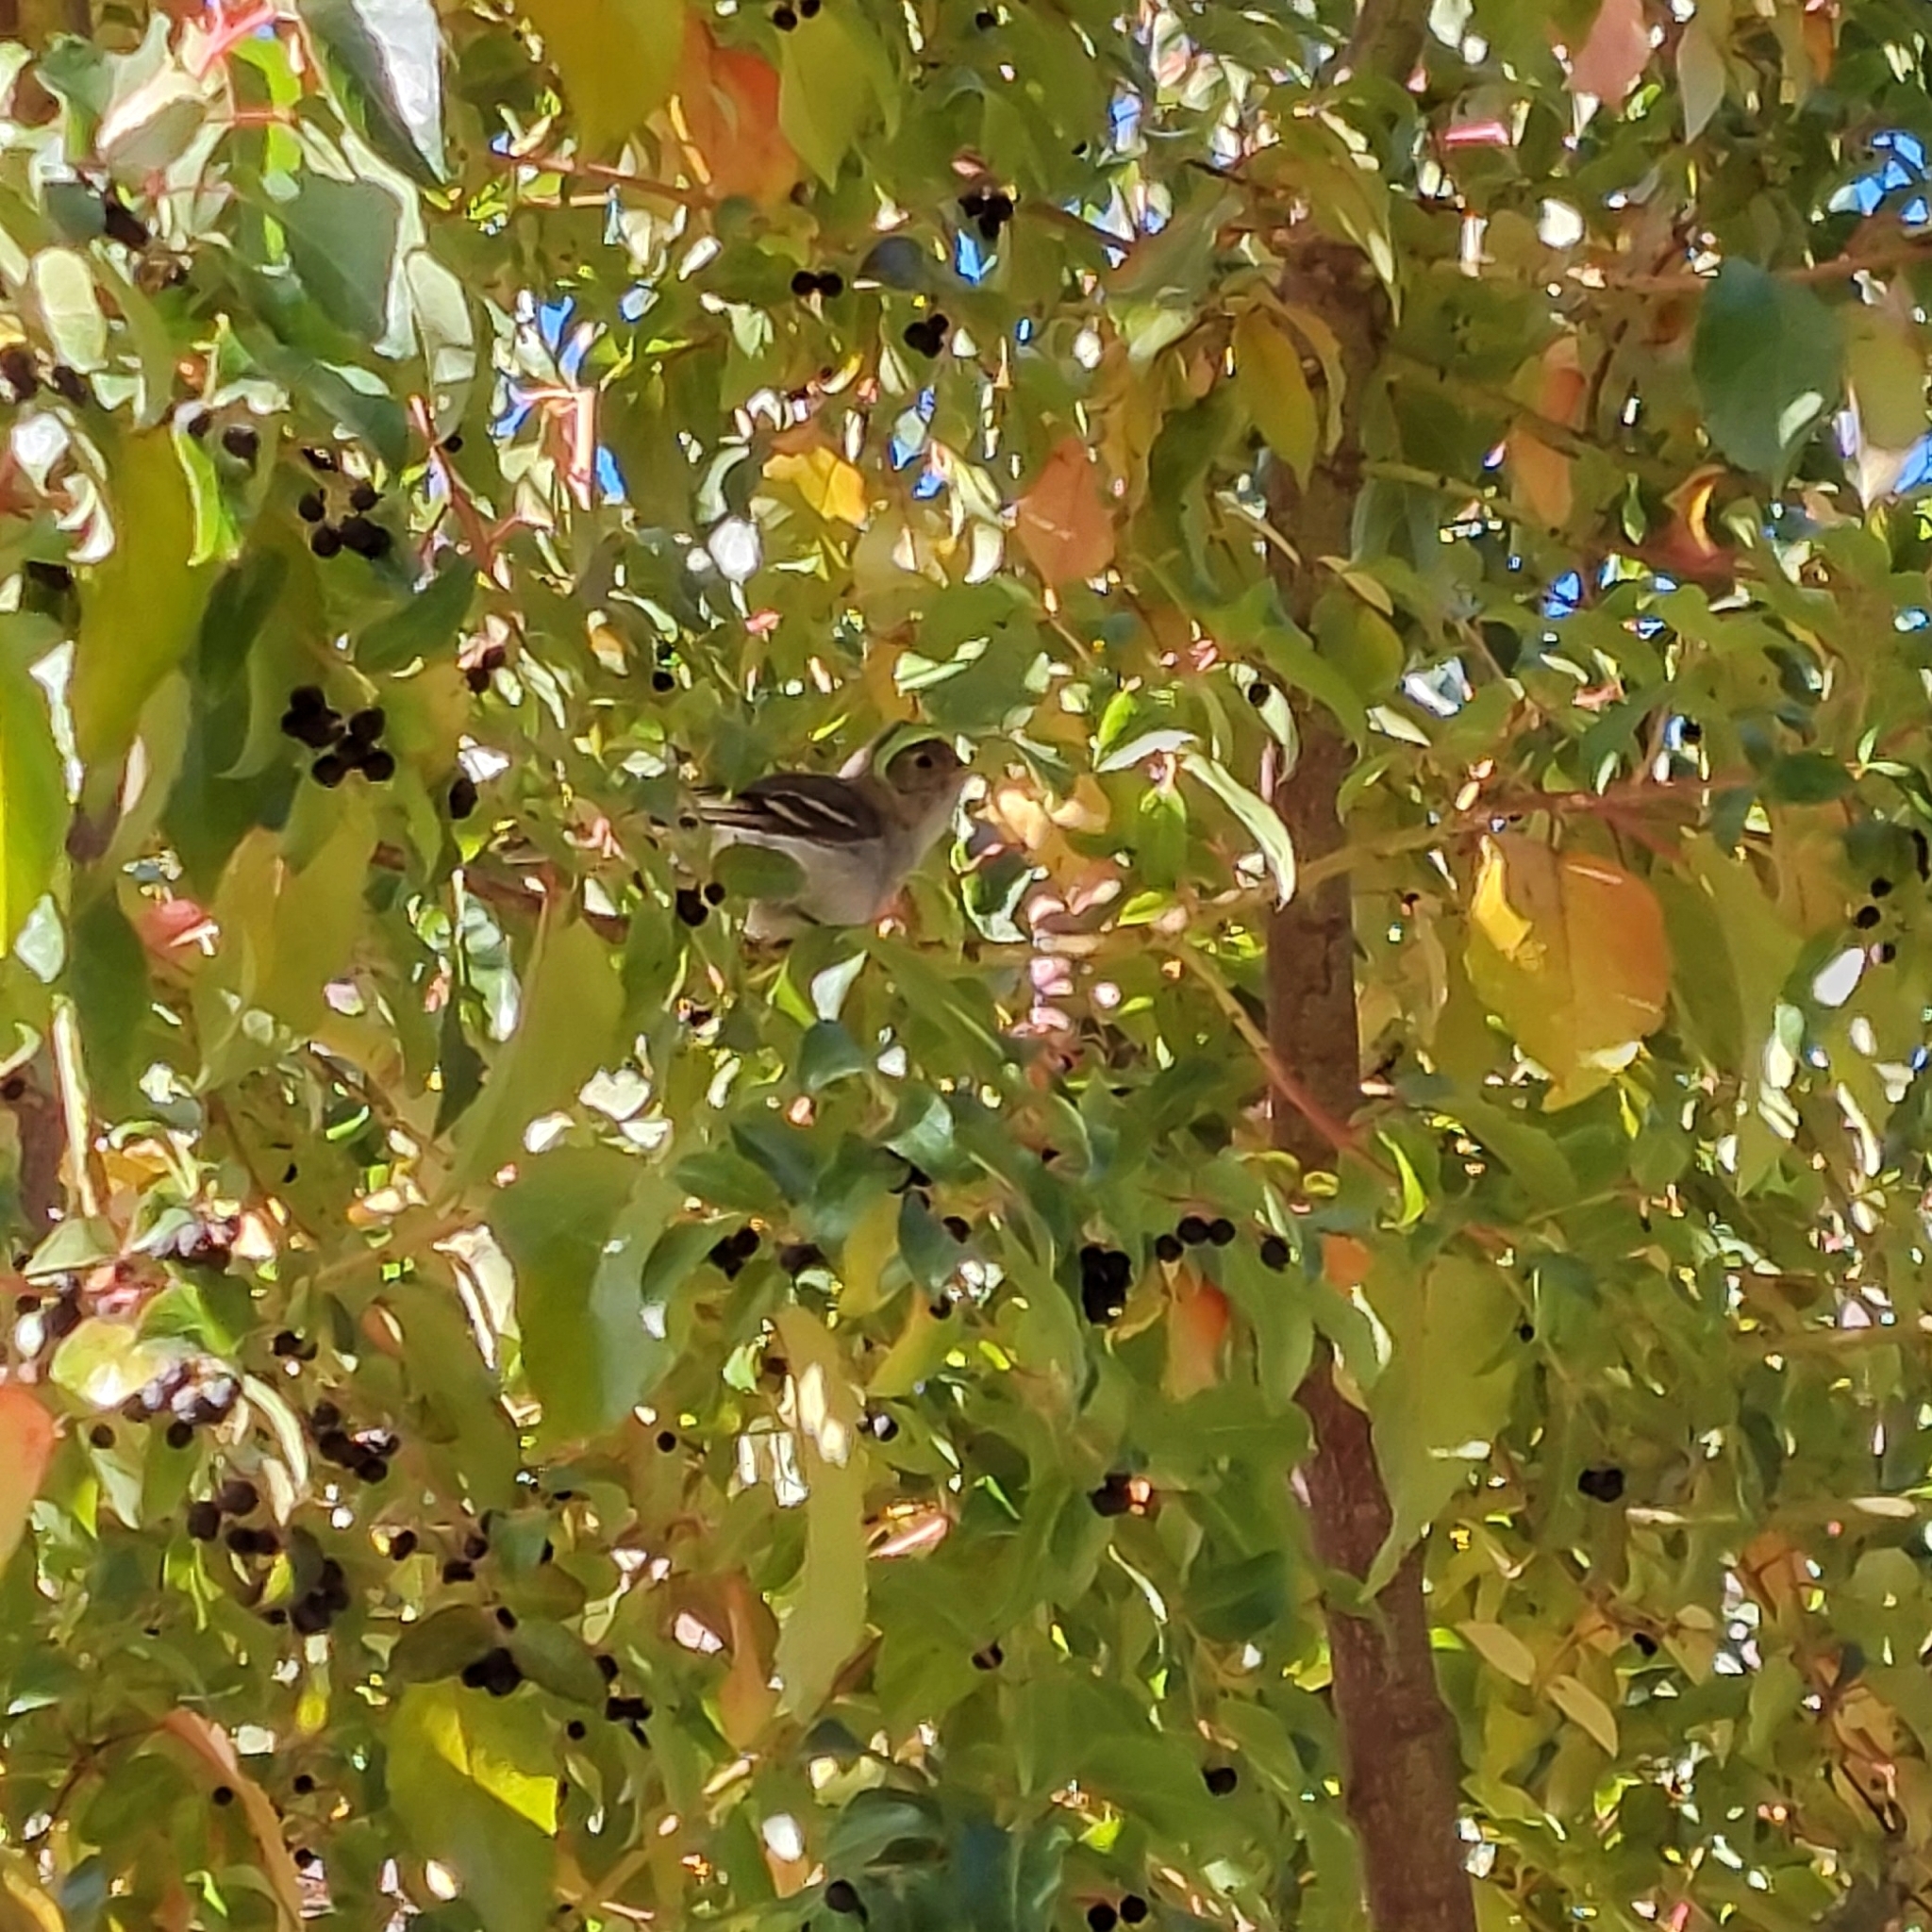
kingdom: Animalia
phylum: Chordata
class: Aves
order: Passeriformes
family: Tyrannidae
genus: Elaenia
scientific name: Elaenia albiceps
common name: White-crested elaenia
